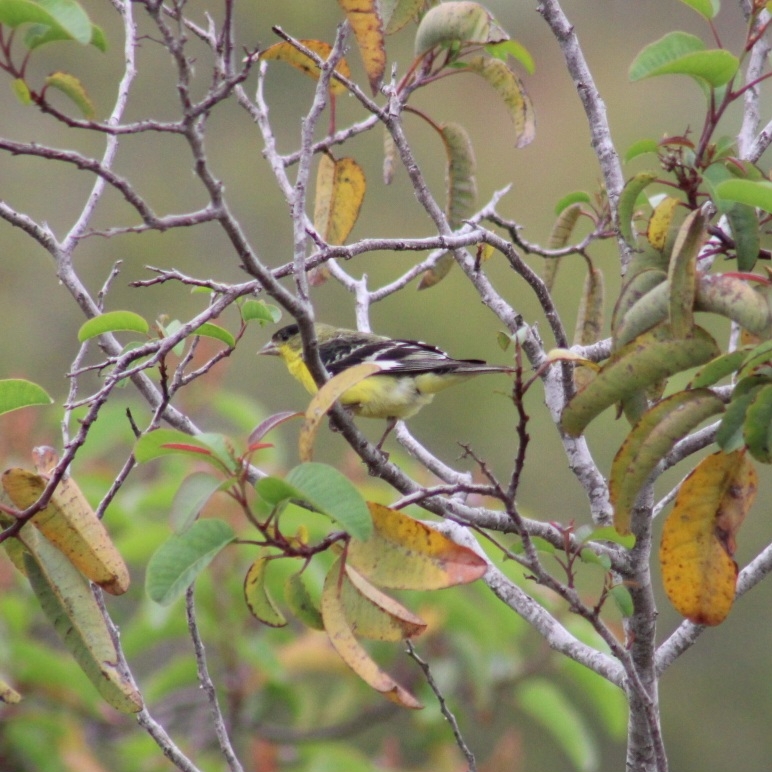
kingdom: Animalia
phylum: Chordata
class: Aves
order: Passeriformes
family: Fringillidae
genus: Spinus
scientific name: Spinus psaltria
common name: Lesser goldfinch
